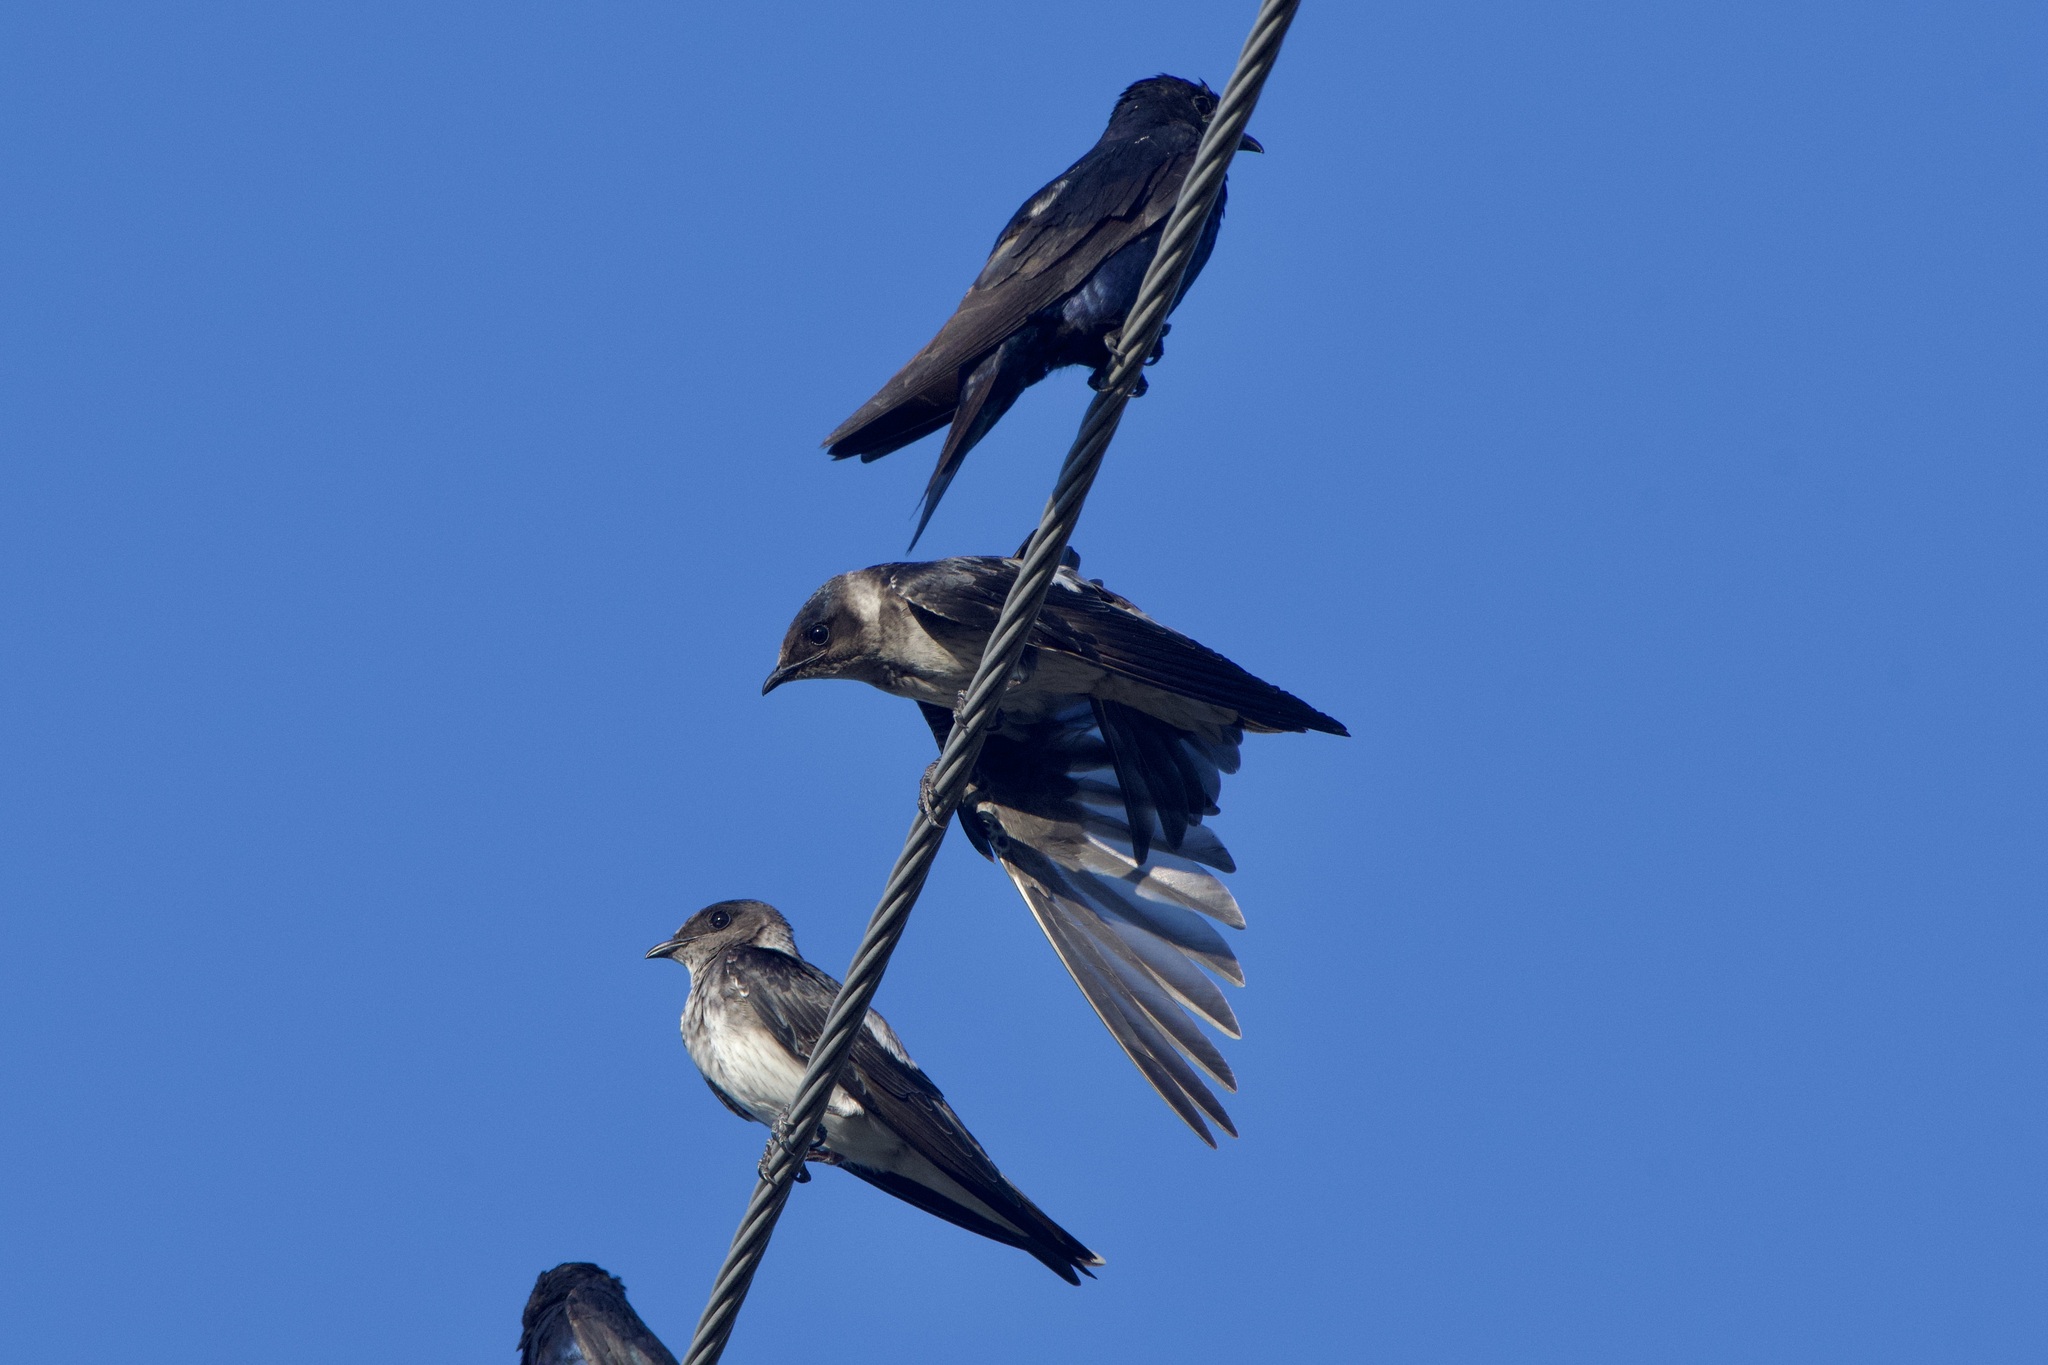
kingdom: Animalia
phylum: Chordata
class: Aves
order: Passeriformes
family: Hirundinidae
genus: Progne
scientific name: Progne subis
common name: Purple martin
